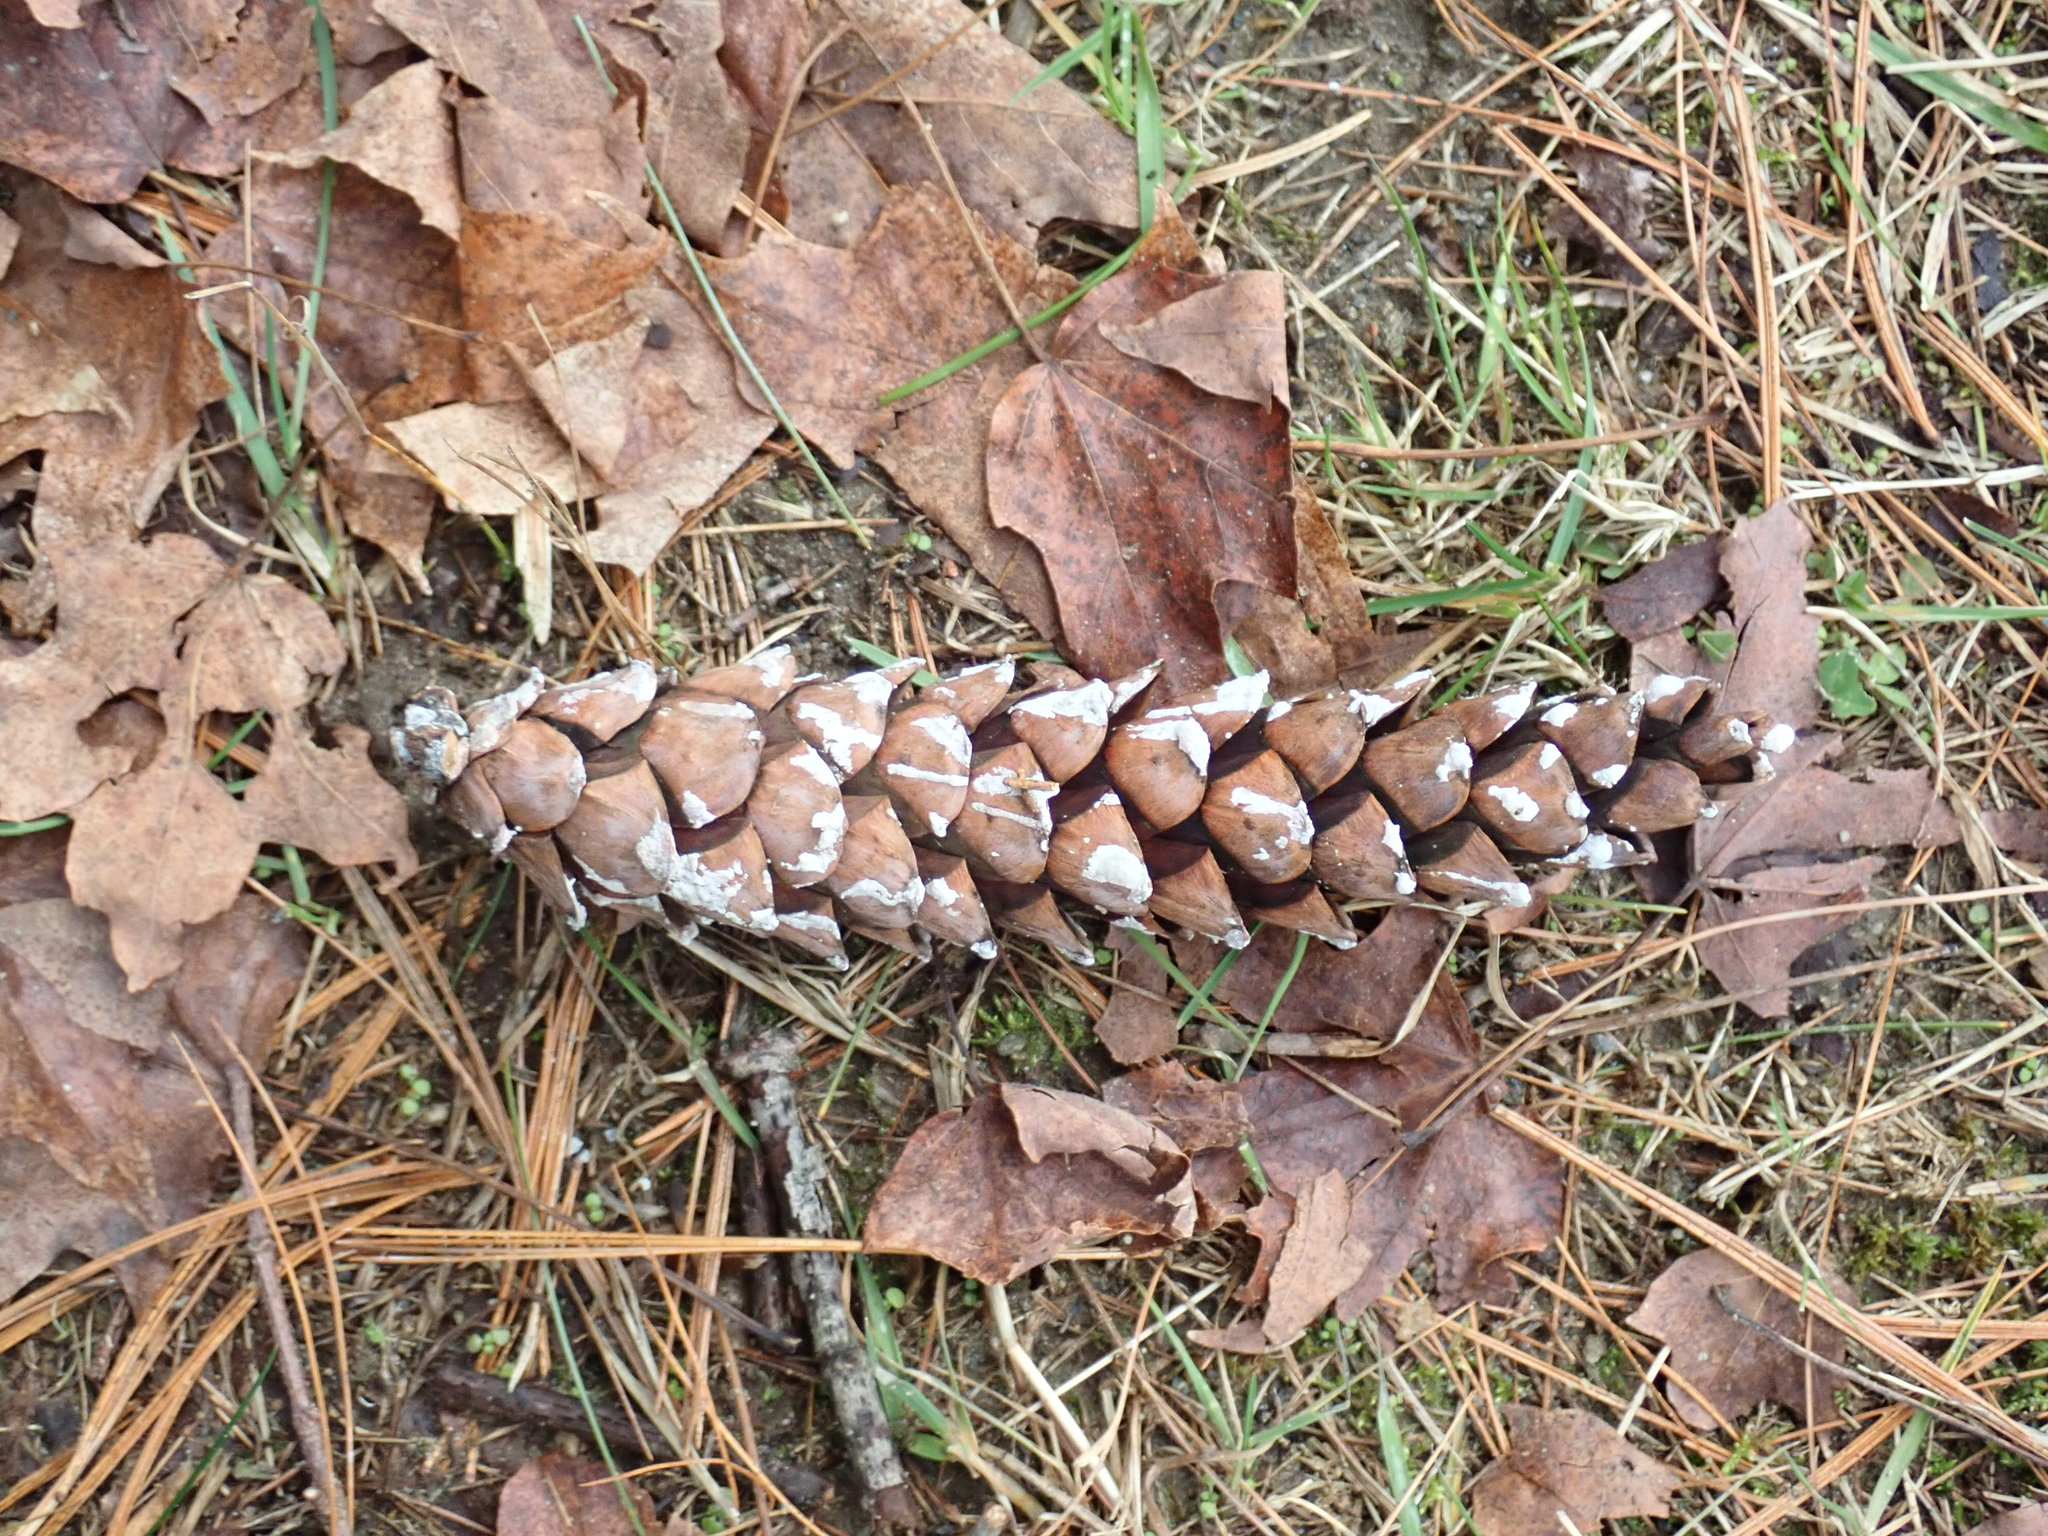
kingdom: Plantae
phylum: Tracheophyta
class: Pinopsida
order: Pinales
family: Pinaceae
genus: Pinus
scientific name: Pinus strobus
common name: Weymouth pine
